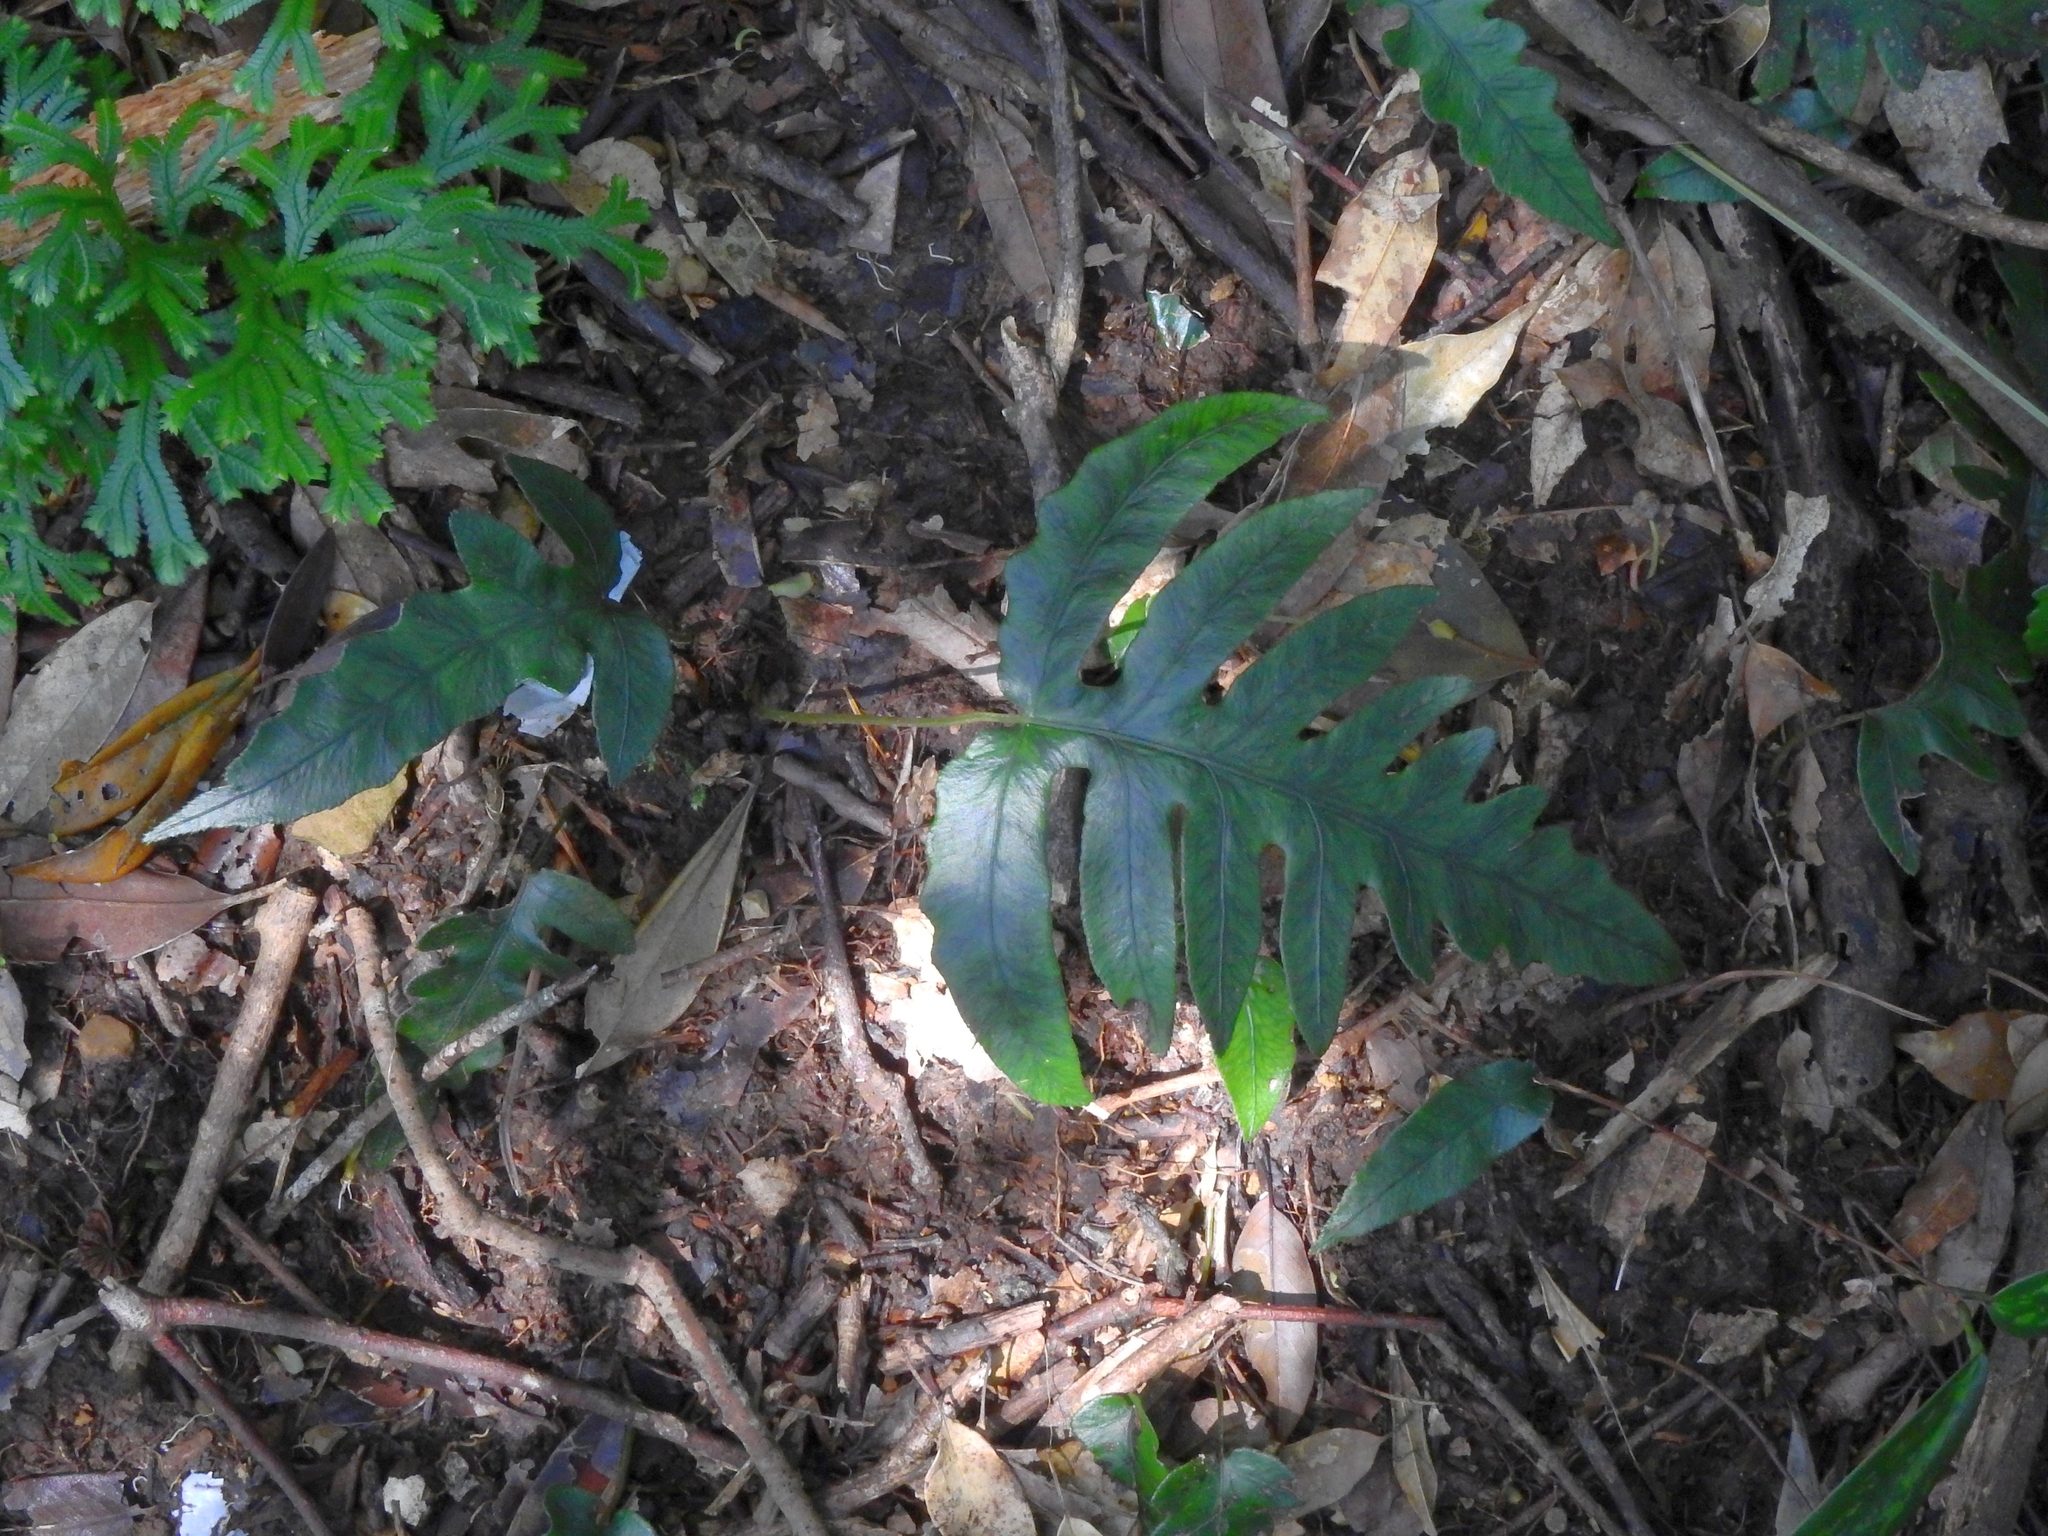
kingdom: Plantae
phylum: Tracheophyta
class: Polypodiopsida
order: Polypodiales
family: Blechnaceae
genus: Woodwardia
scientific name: Woodwardia kempii
